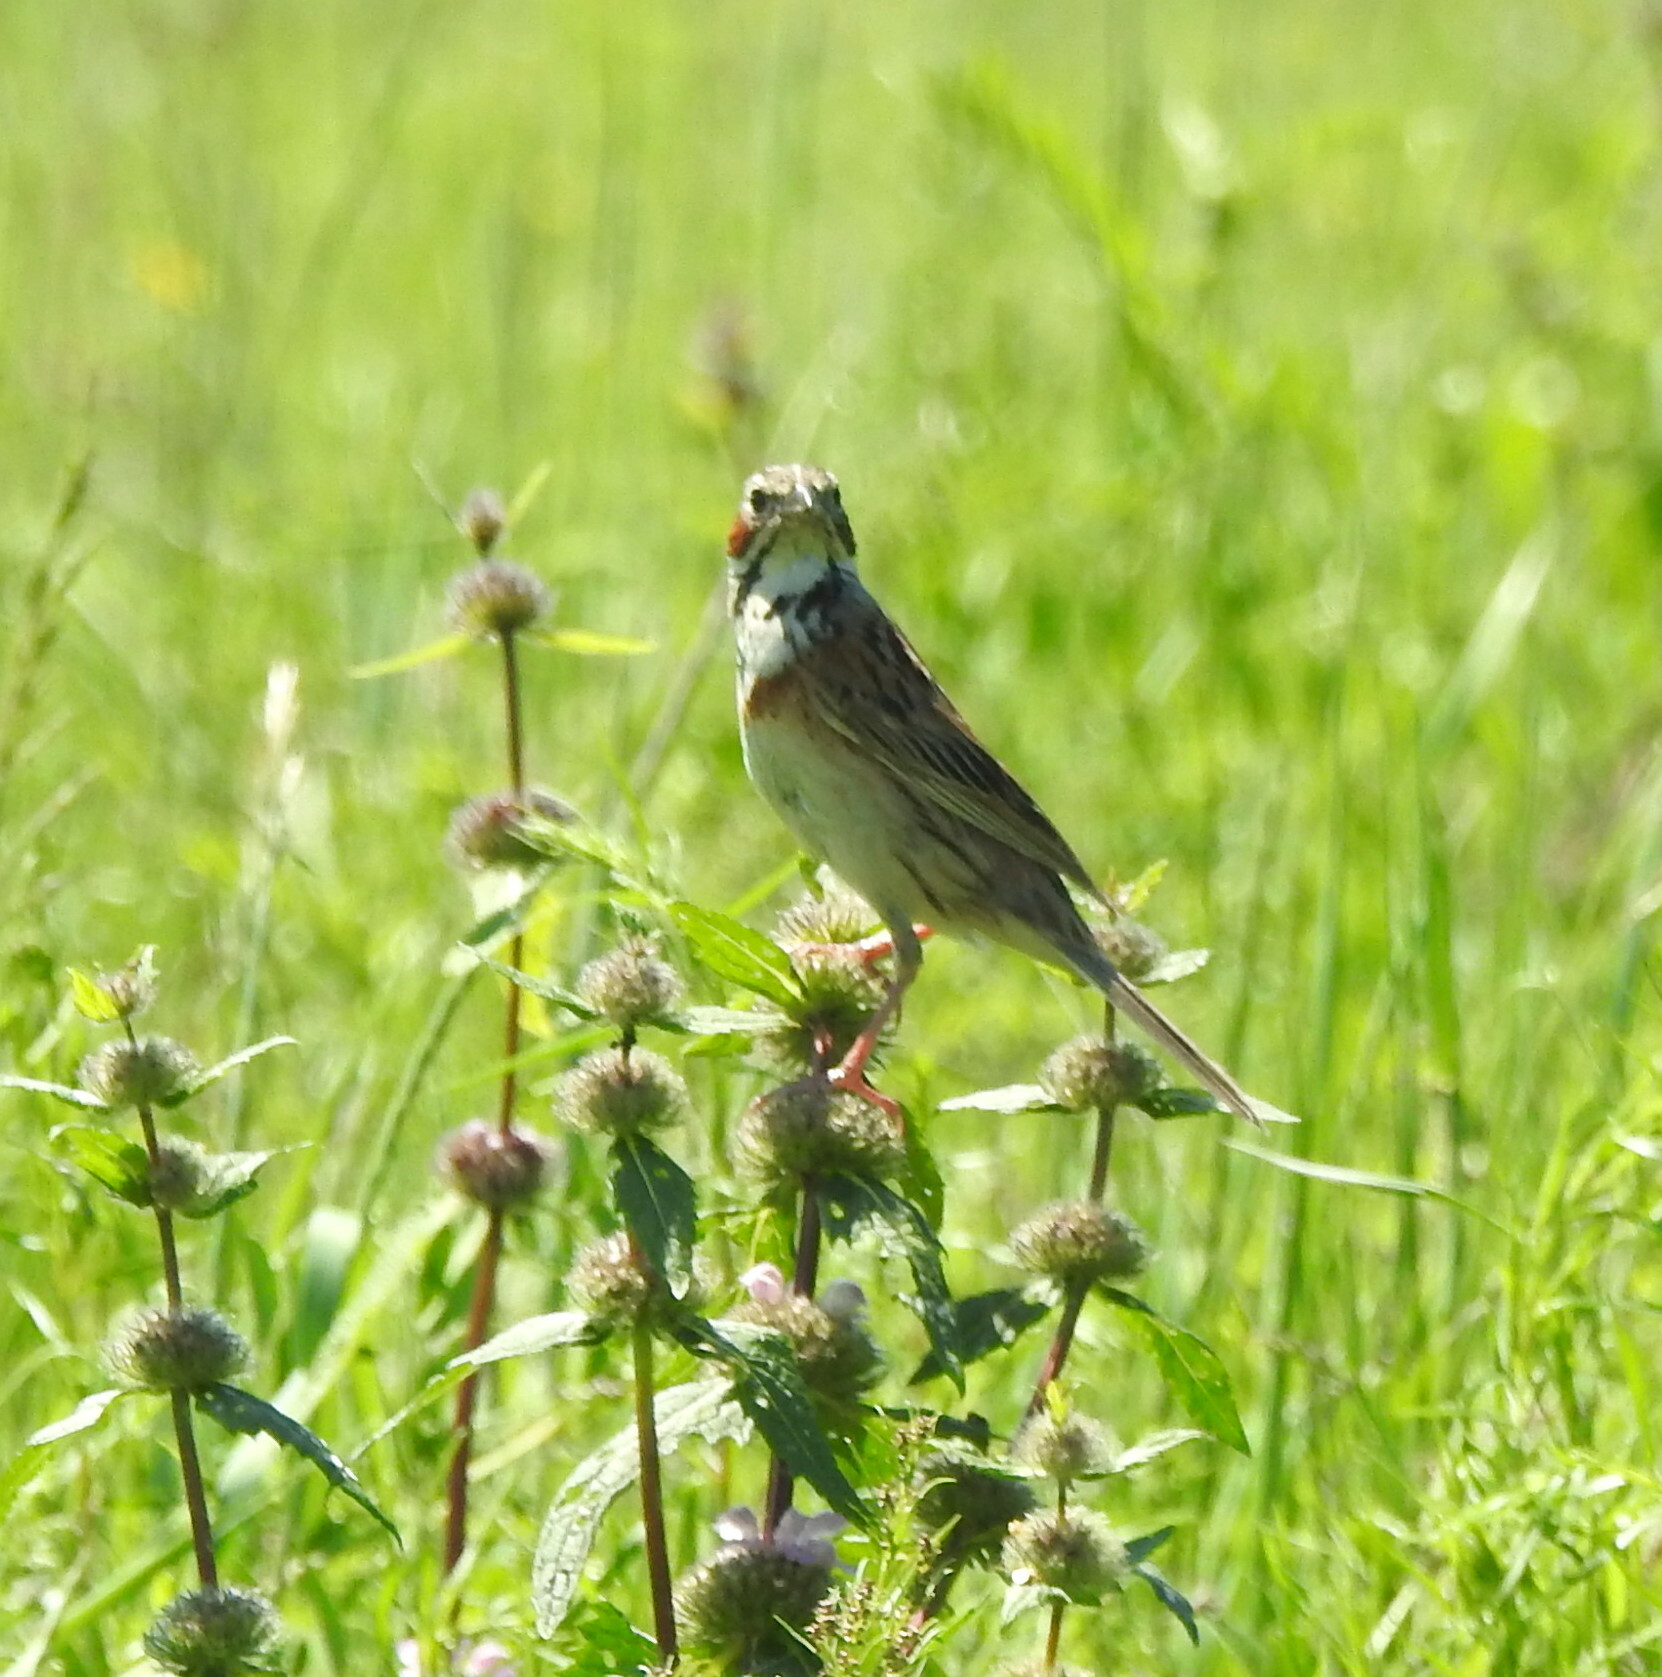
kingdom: Animalia
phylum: Chordata
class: Aves
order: Passeriformes
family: Emberizidae
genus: Emberiza
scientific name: Emberiza fucata
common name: Chestnut-eared bunting
